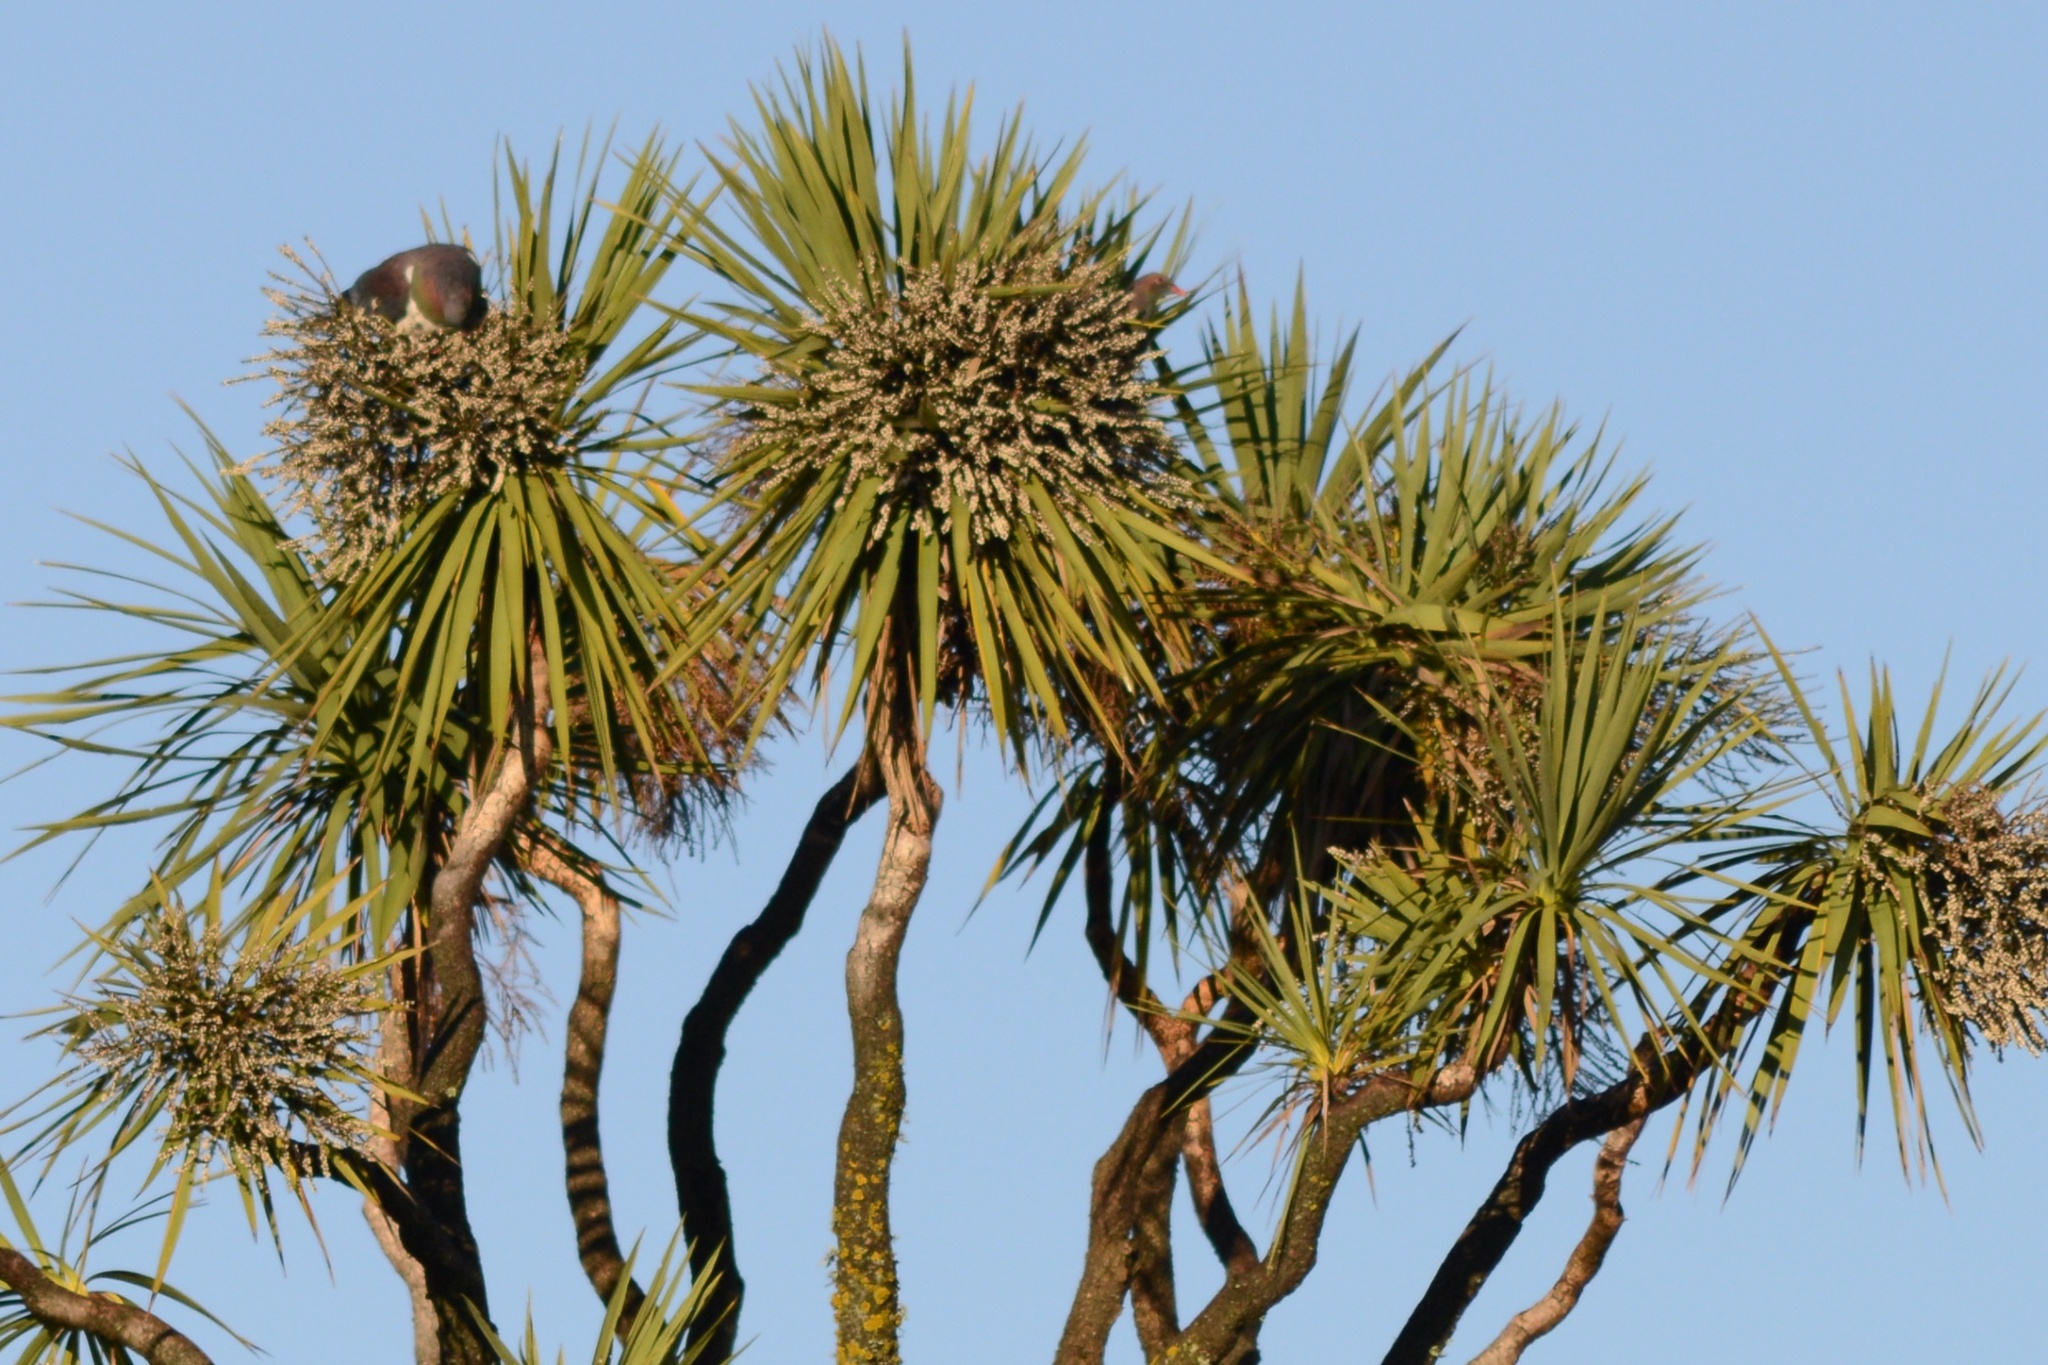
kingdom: Animalia
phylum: Chordata
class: Aves
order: Columbiformes
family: Columbidae
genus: Hemiphaga
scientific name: Hemiphaga novaeseelandiae
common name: New zealand pigeon
